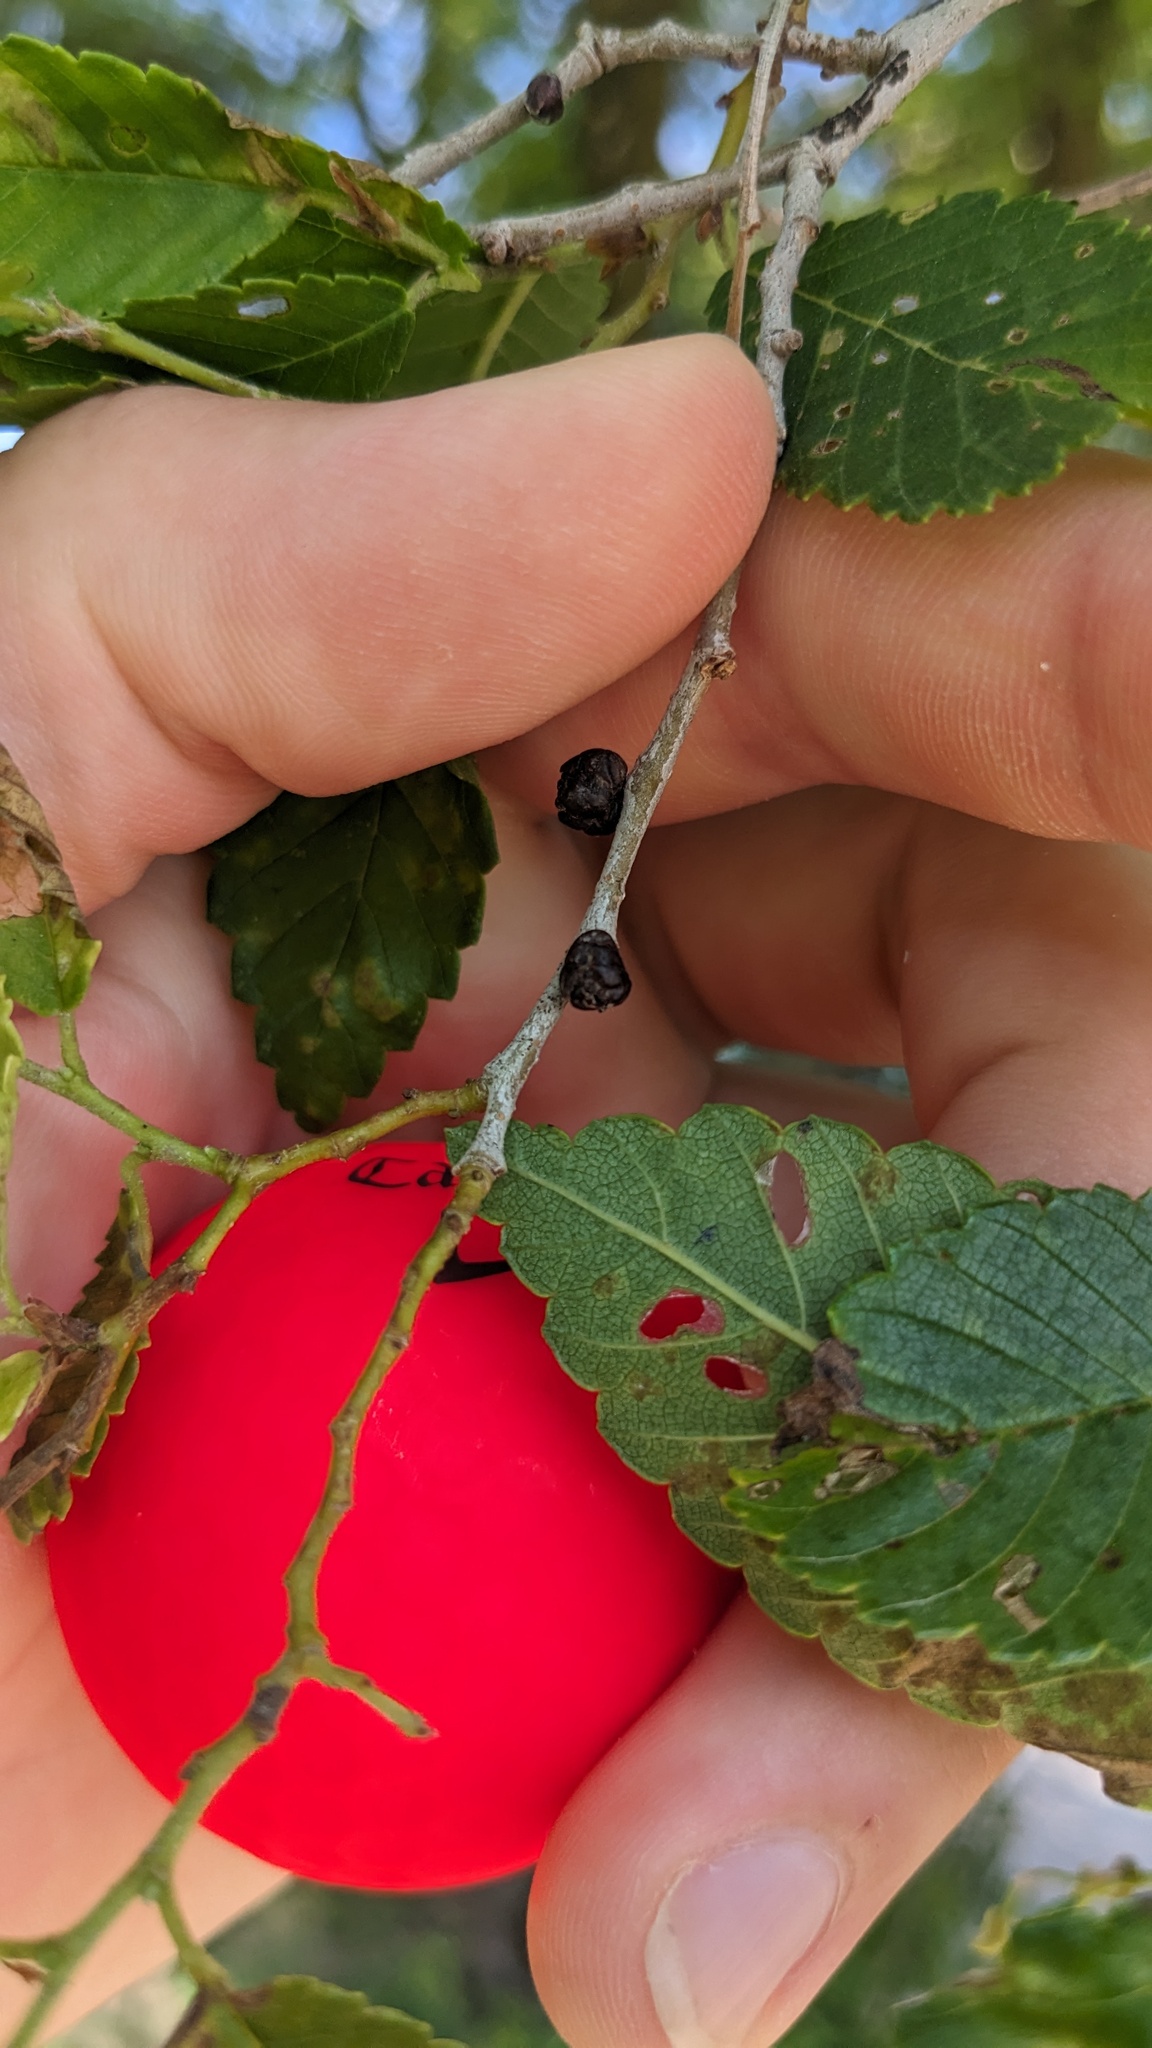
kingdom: Plantae
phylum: Tracheophyta
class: Magnoliopsida
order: Rosales
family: Ulmaceae
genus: Ulmus
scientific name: Ulmus pumila
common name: Siberian elm
